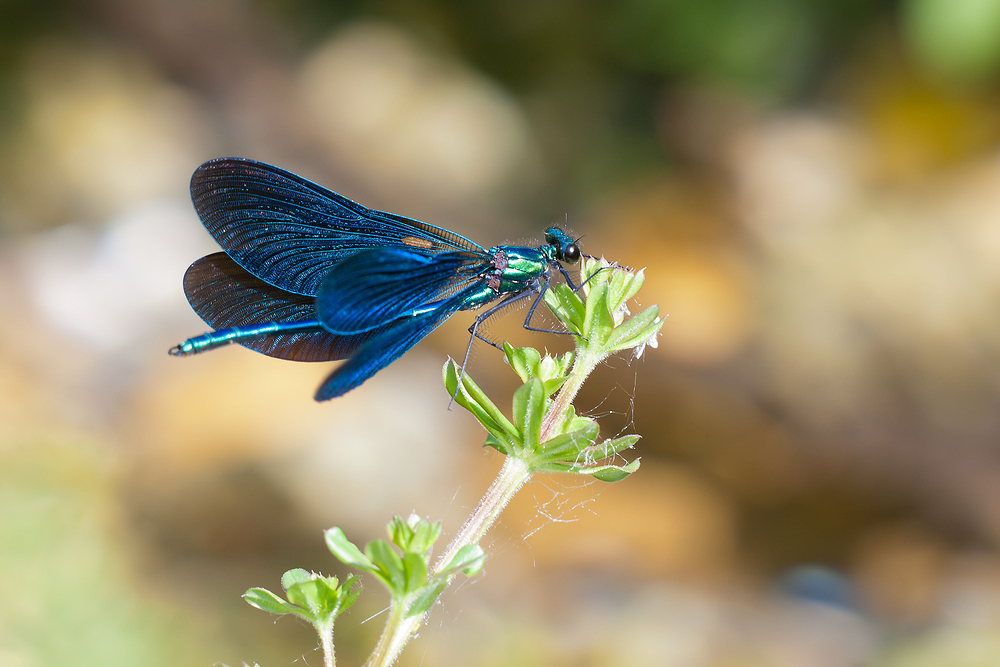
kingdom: Animalia
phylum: Arthropoda
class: Insecta
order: Odonata
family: Calopterygidae
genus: Calopteryx
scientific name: Calopteryx virgo
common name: Beautiful demoiselle
